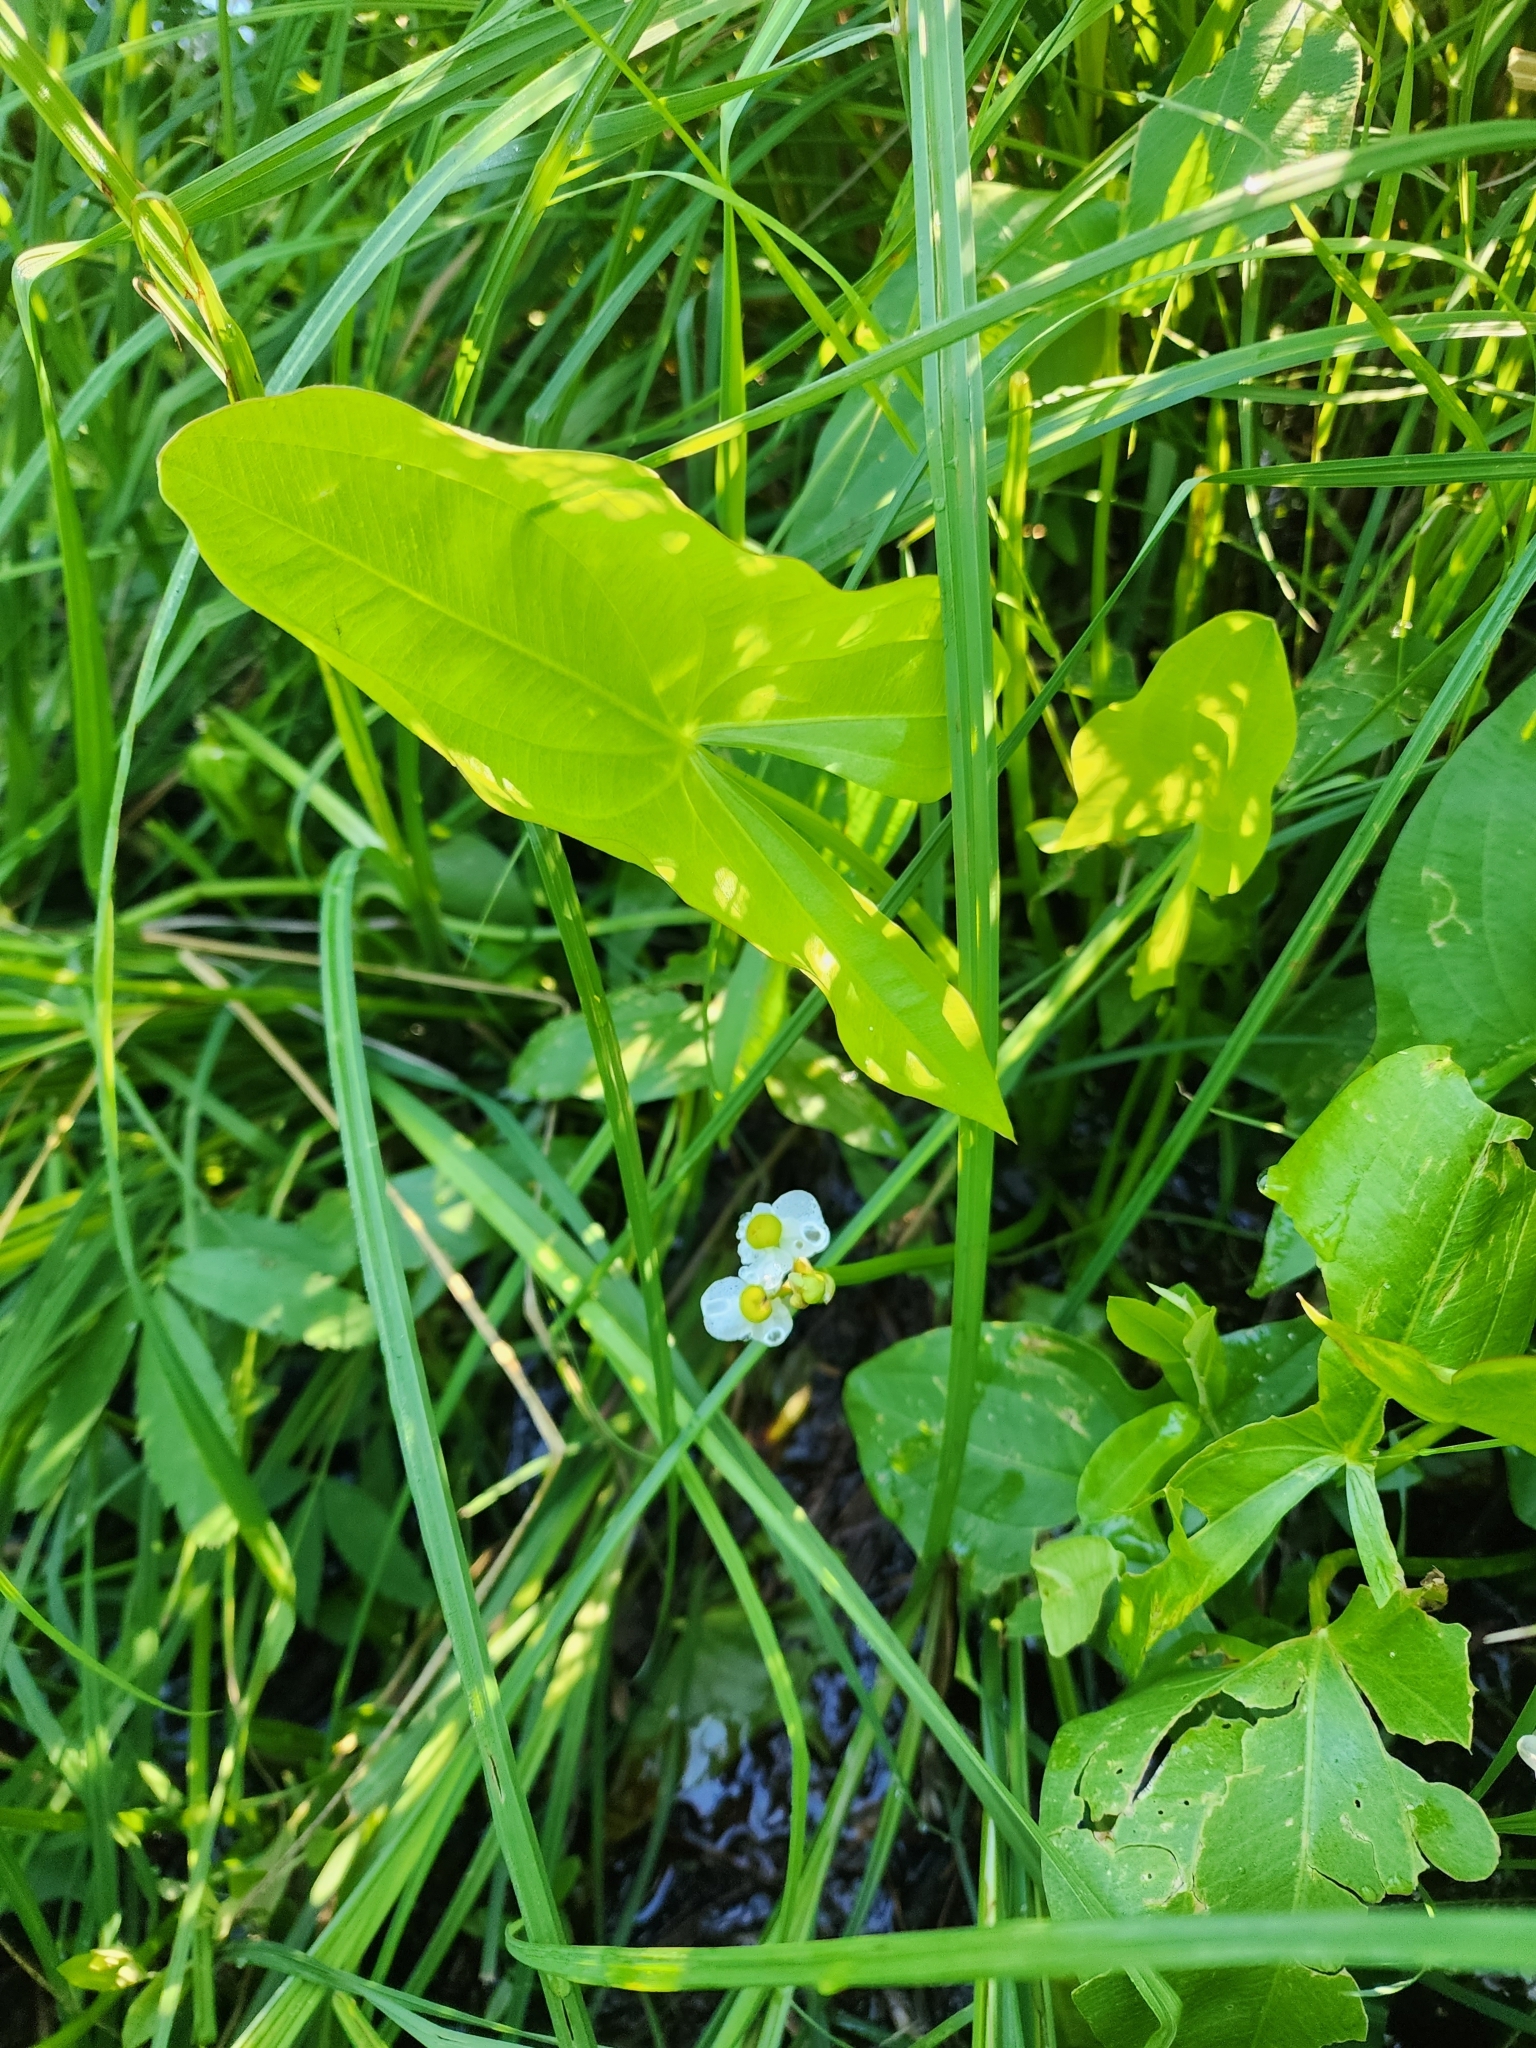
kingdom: Plantae
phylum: Tracheophyta
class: Liliopsida
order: Alismatales
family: Alismataceae
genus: Sagittaria
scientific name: Sagittaria latifolia
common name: Duck-potato
